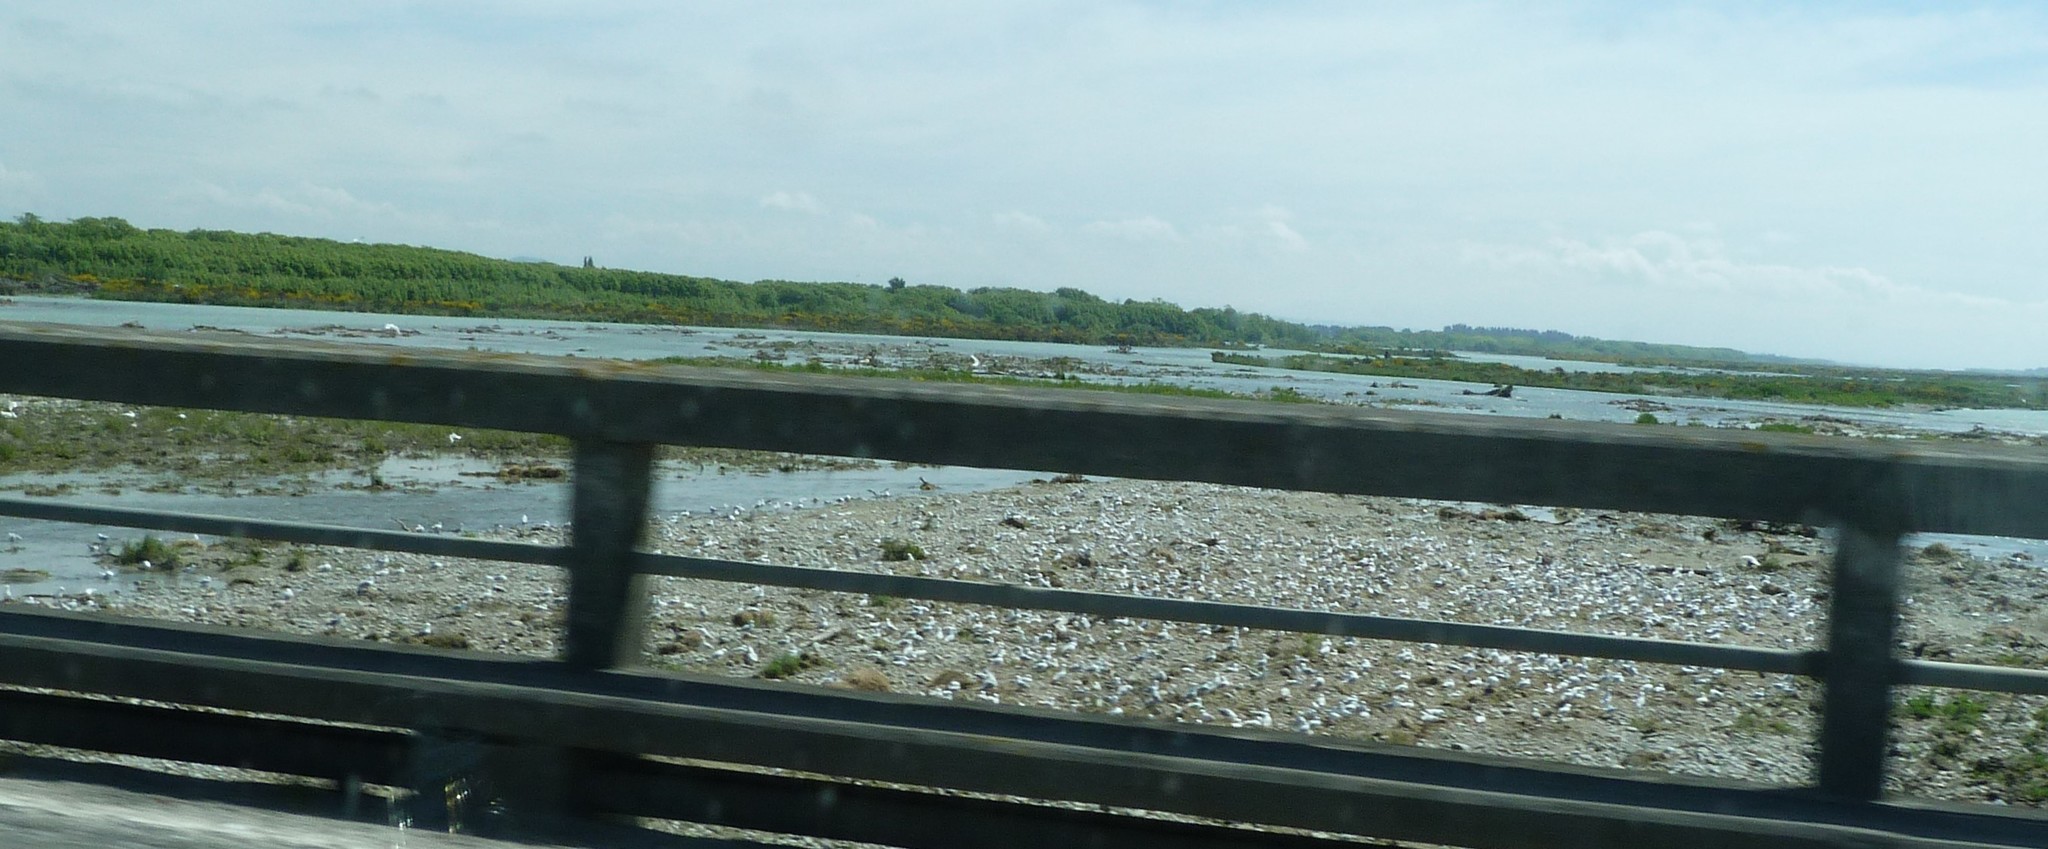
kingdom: Animalia
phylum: Chordata
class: Aves
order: Charadriiformes
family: Laridae
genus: Chroicocephalus
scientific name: Chroicocephalus bulleri
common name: Black-billed gull
